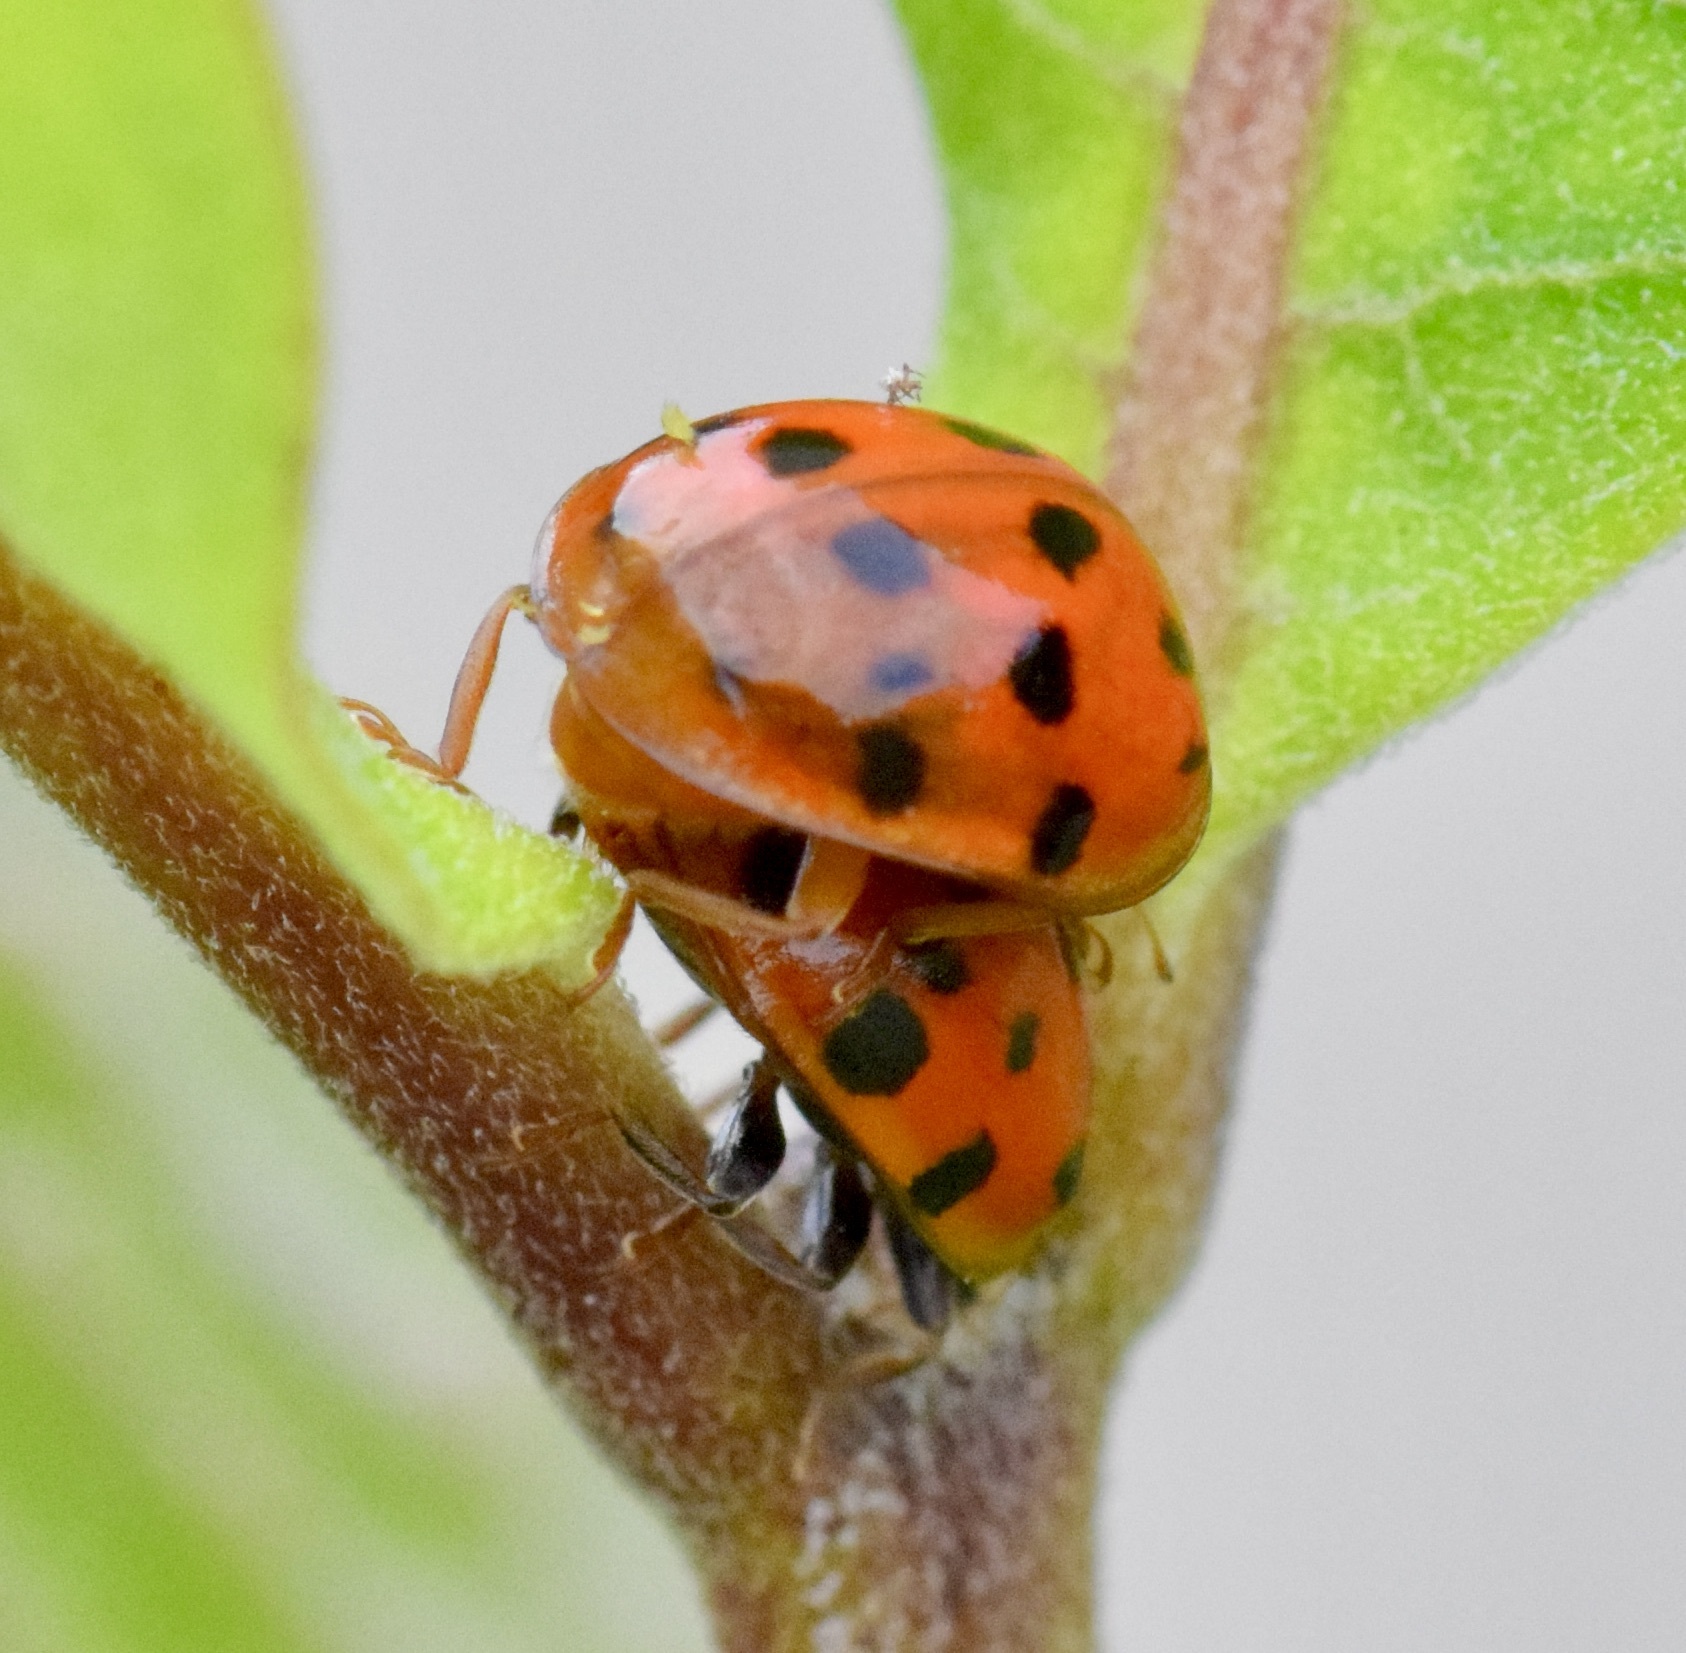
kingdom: Animalia
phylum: Arthropoda
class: Insecta
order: Coleoptera
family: Coccinellidae
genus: Harmonia
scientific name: Harmonia axyridis
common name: Harlequin ladybird
